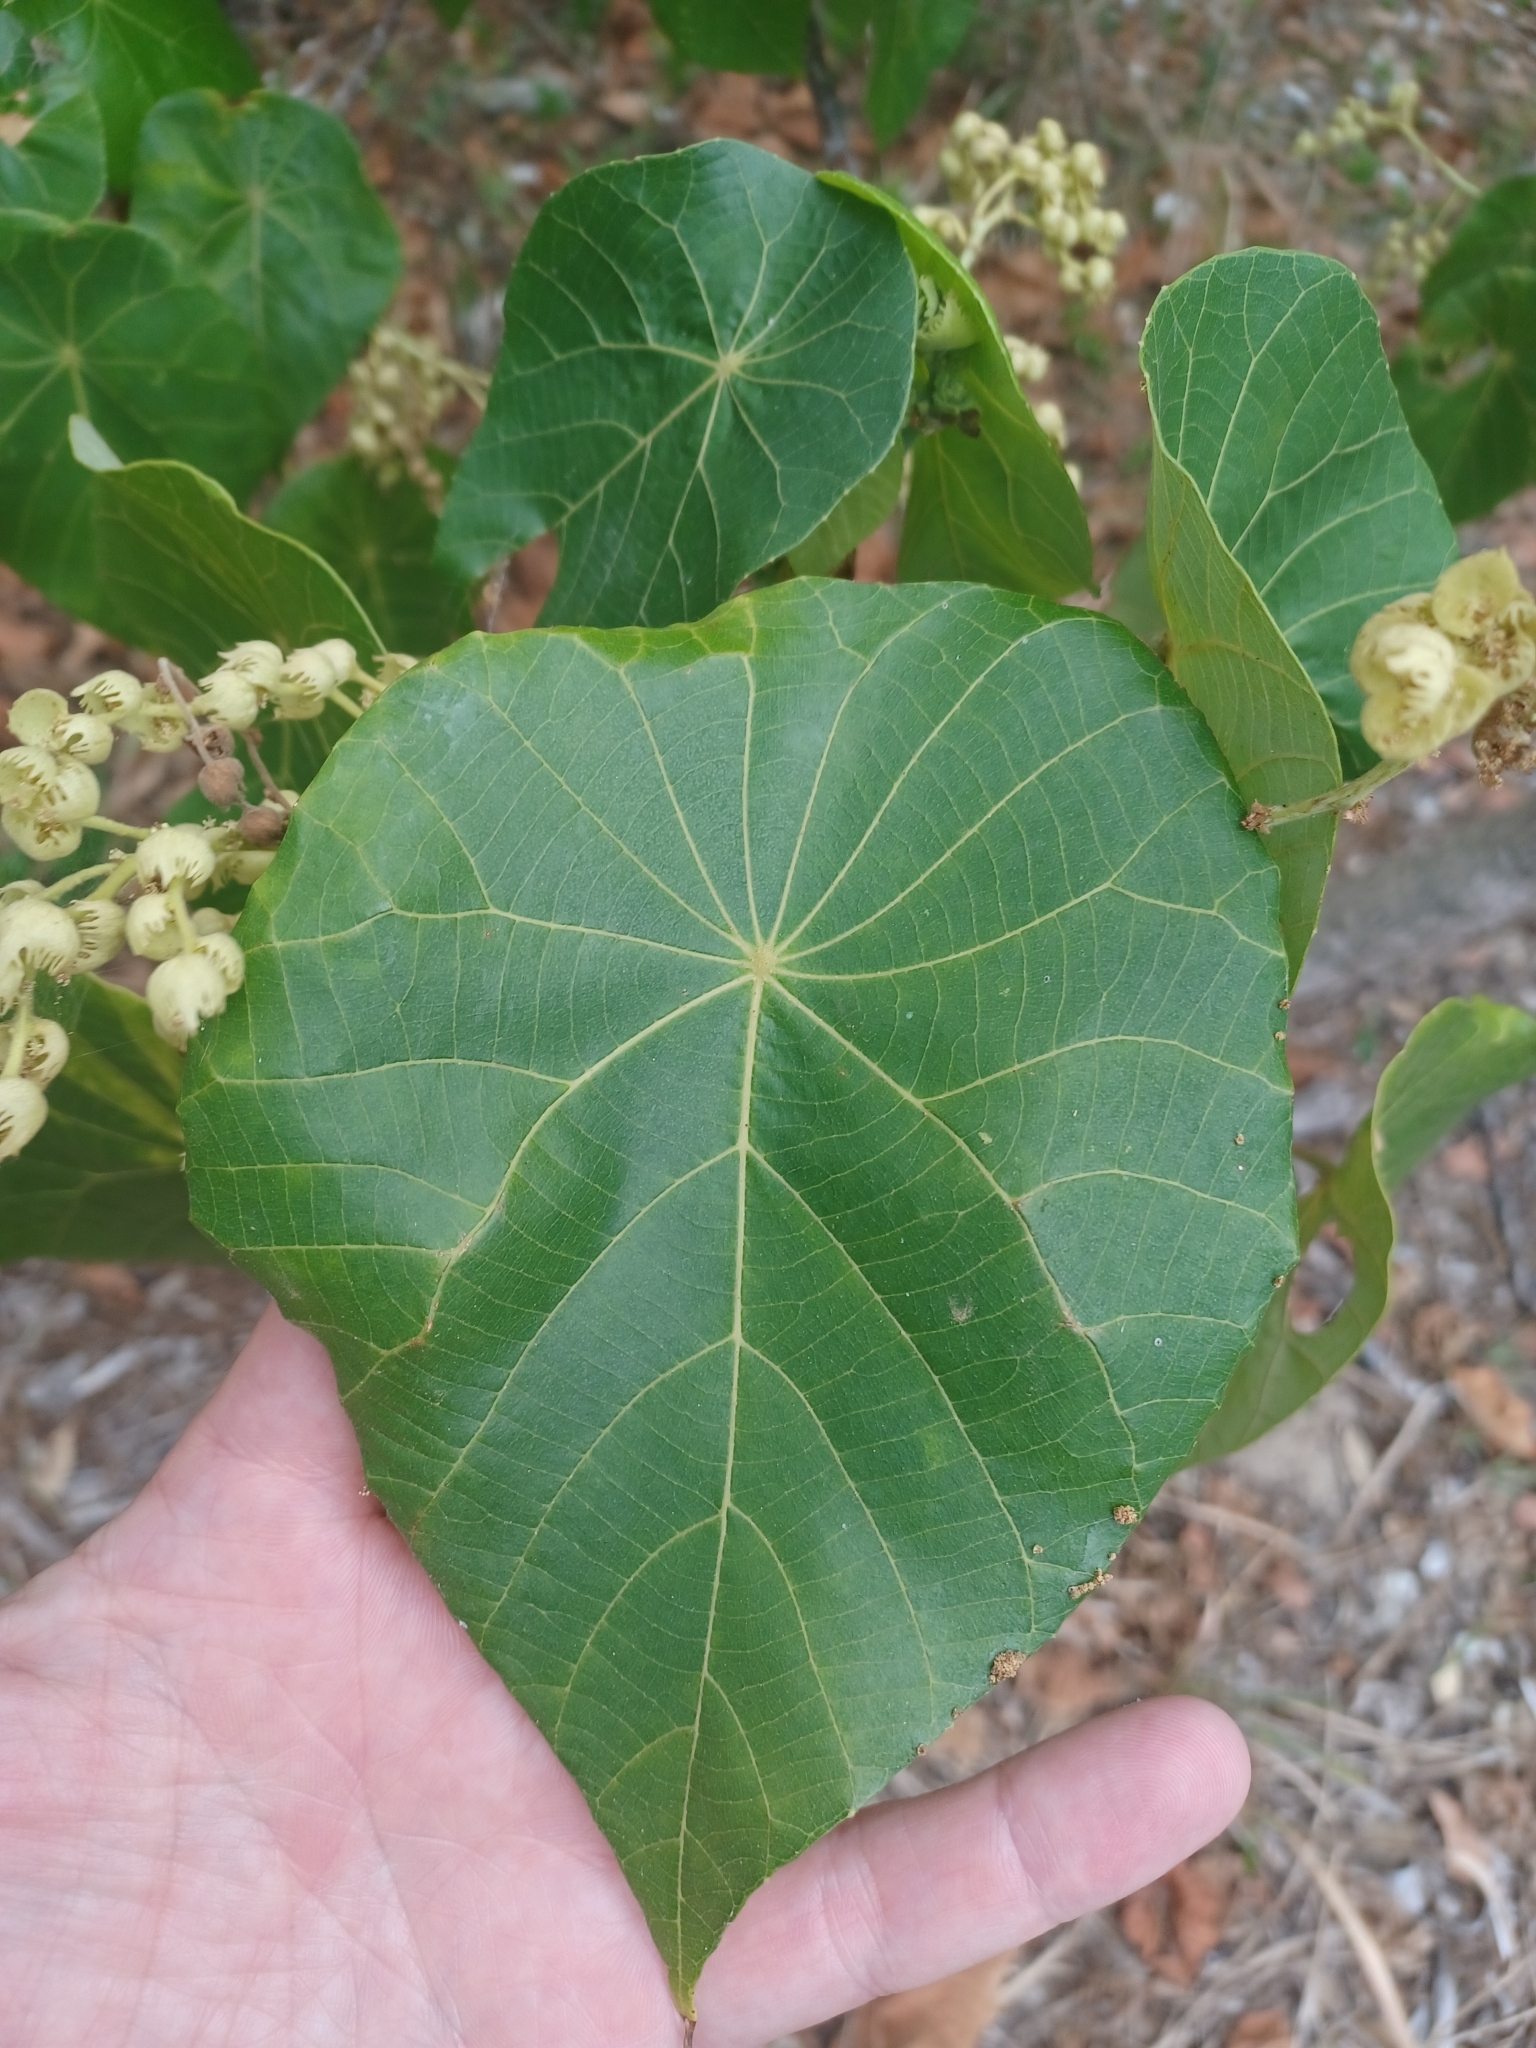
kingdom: Plantae
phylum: Tracheophyta
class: Magnoliopsida
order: Malpighiales
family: Euphorbiaceae
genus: Macaranga
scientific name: Macaranga tanarius
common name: Parasol leaf tree
